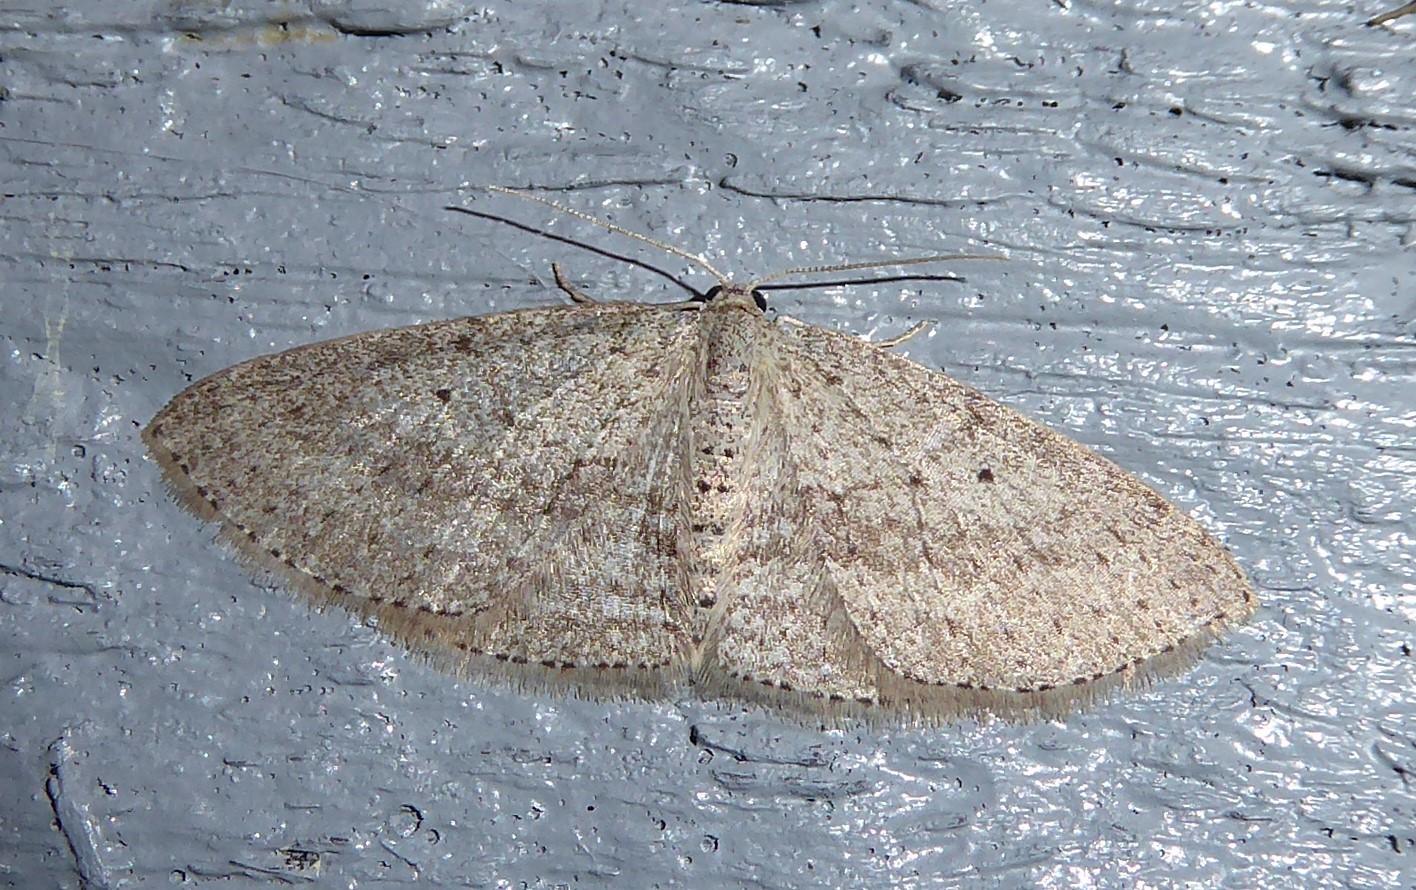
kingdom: Animalia
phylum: Arthropoda
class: Insecta
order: Lepidoptera
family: Geometridae
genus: Poecilasthena
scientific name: Poecilasthena schistaria
